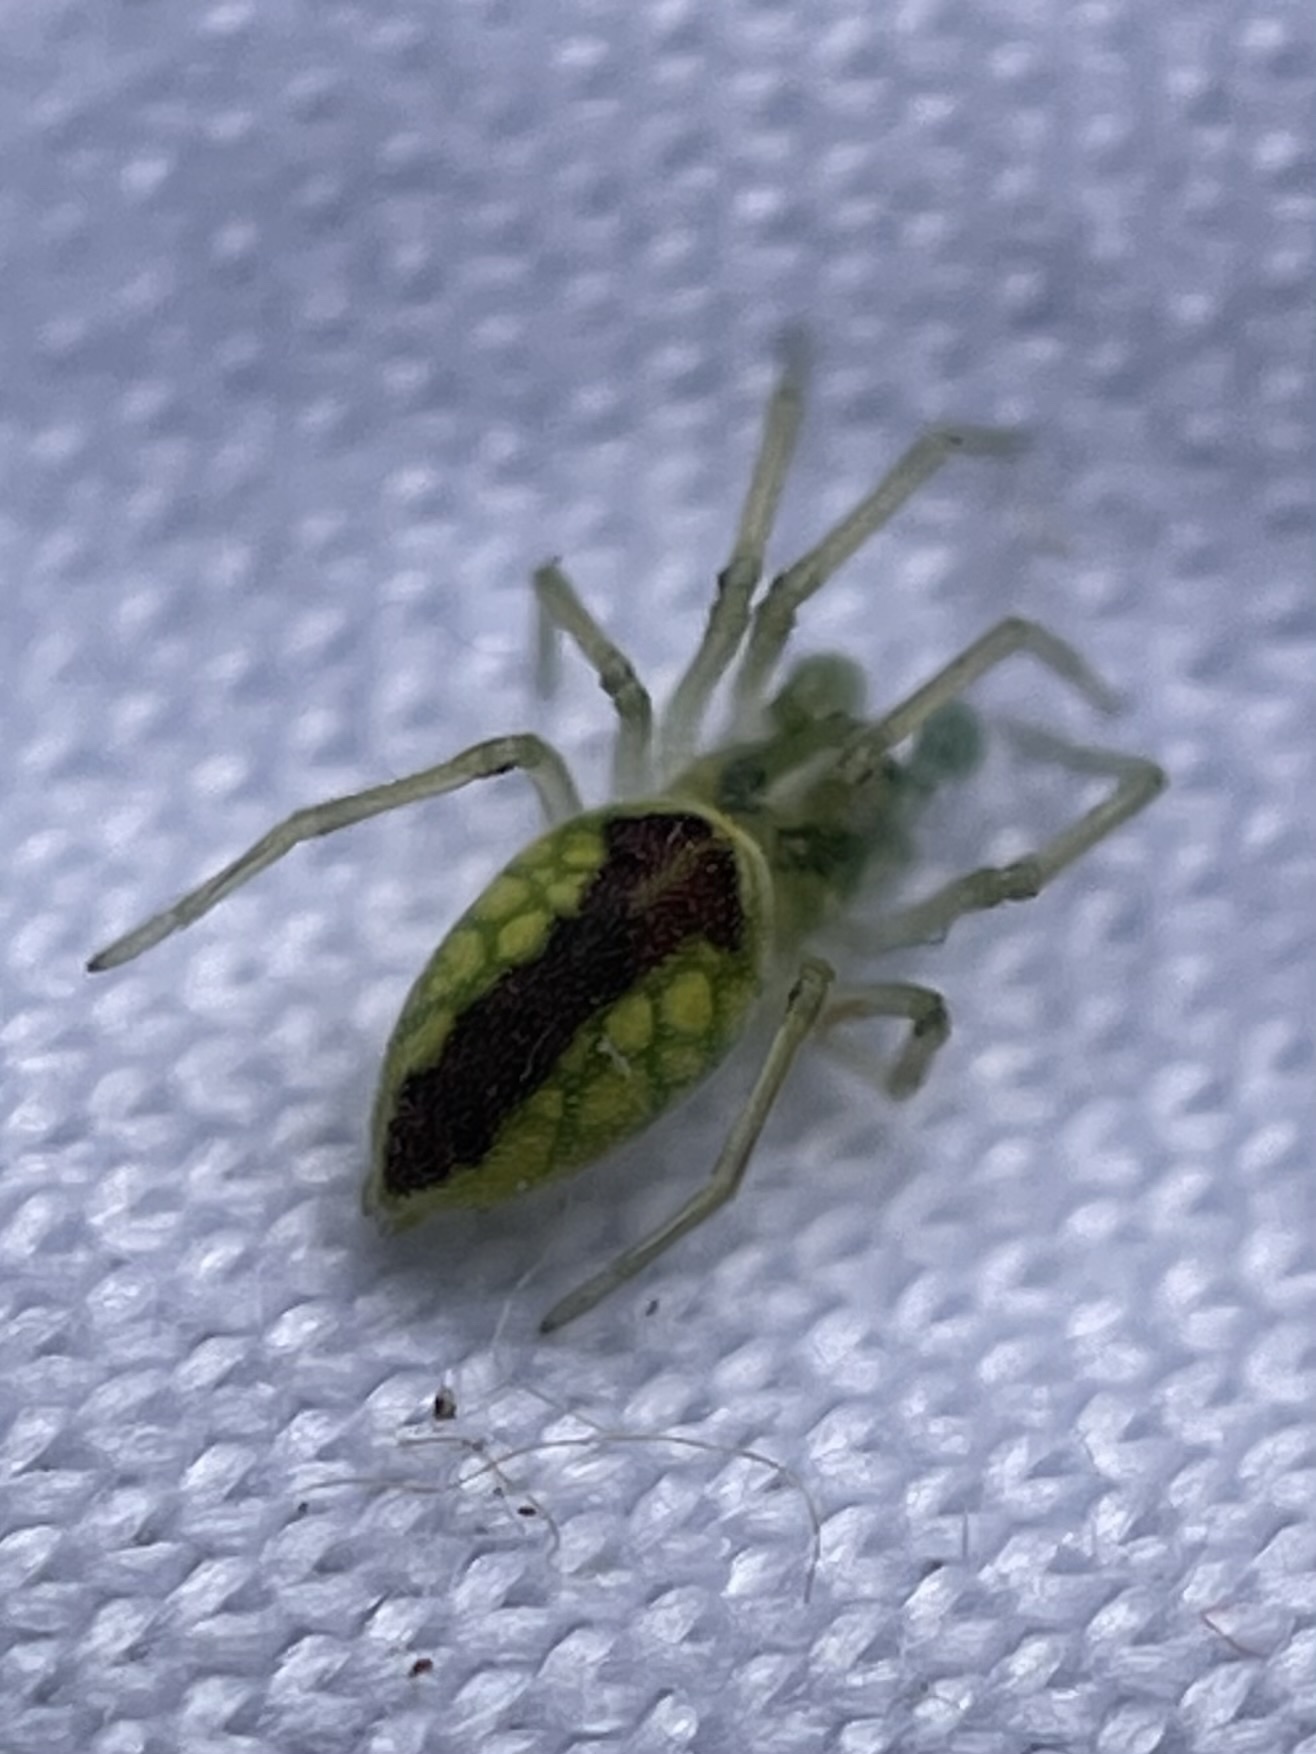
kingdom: Animalia
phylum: Arthropoda
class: Arachnida
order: Araneae
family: Dictynidae
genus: Nigma
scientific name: Nigma linsdalei
